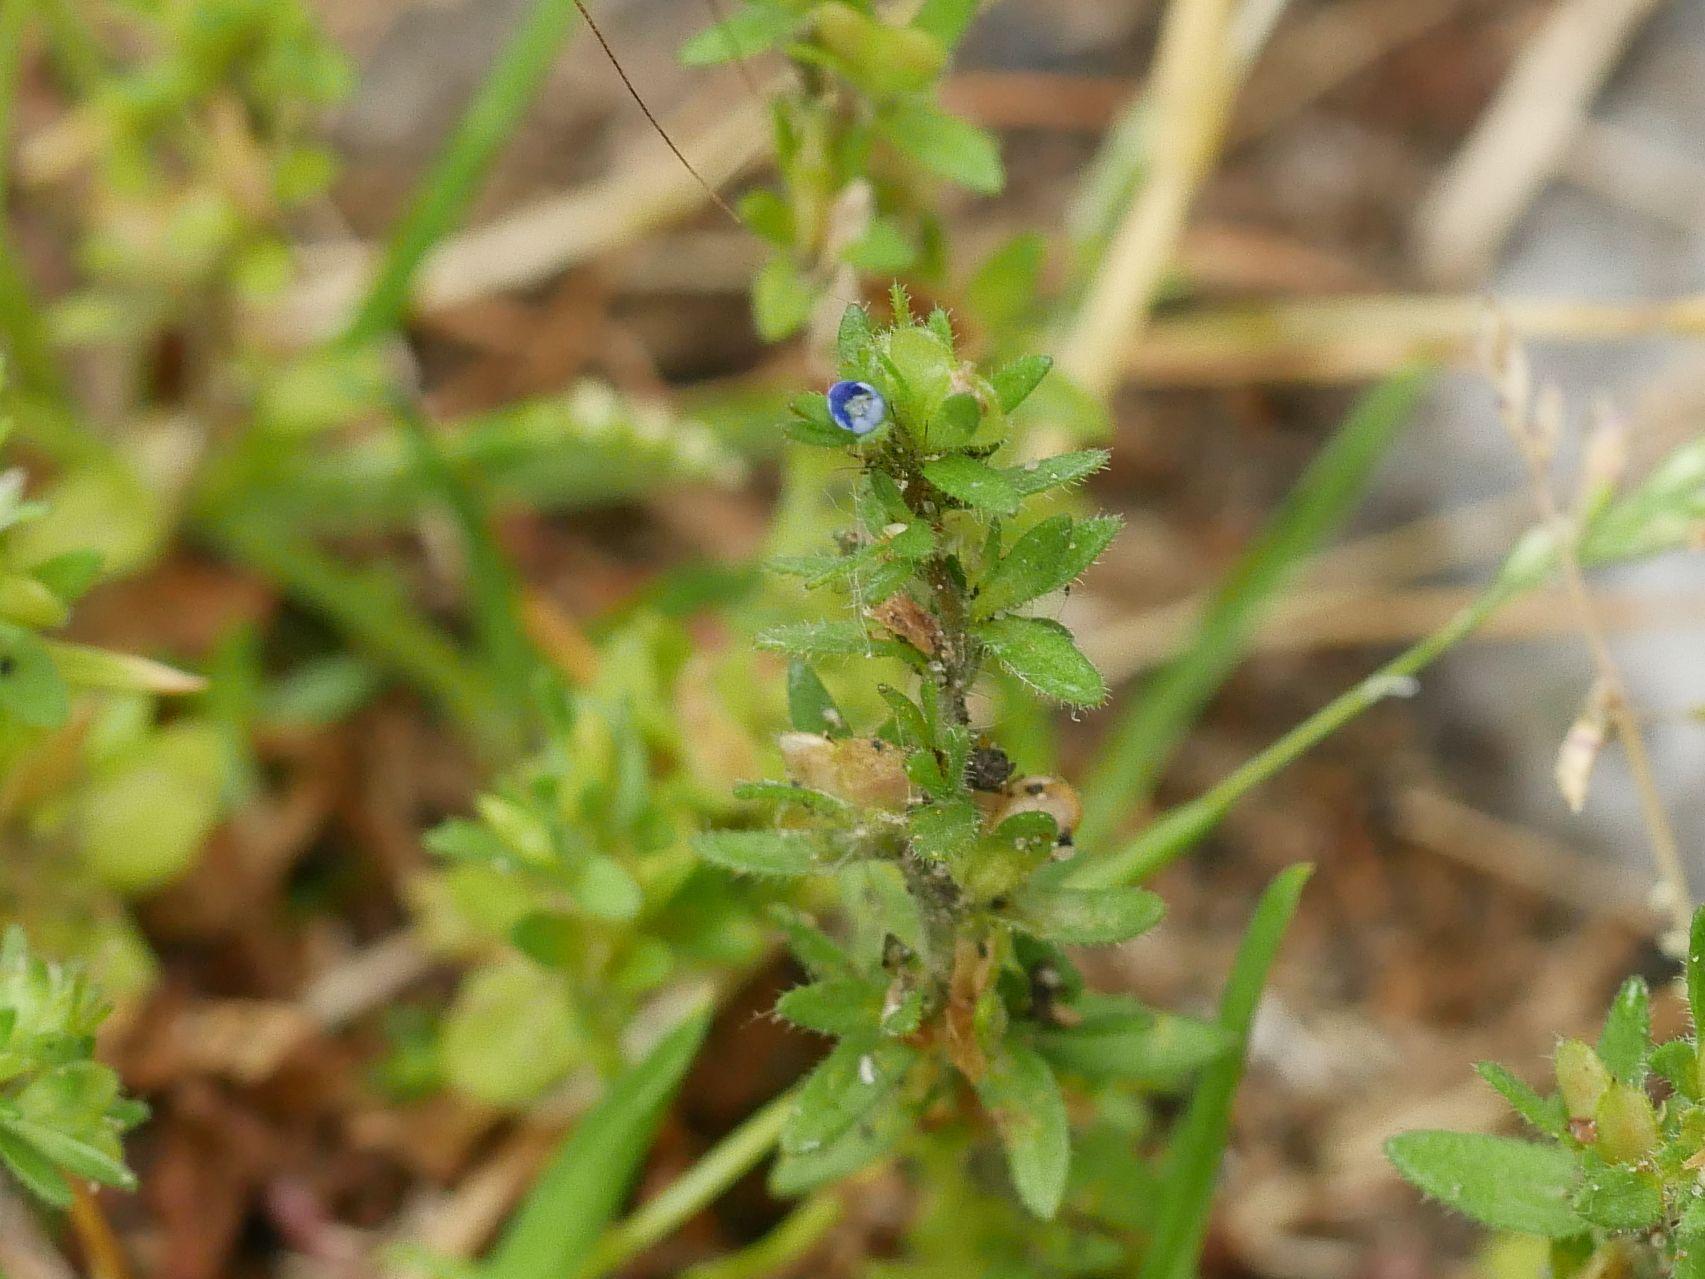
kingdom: Plantae
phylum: Tracheophyta
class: Magnoliopsida
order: Lamiales
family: Plantaginaceae
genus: Veronica
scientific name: Veronica arvensis
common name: Corn speedwell
